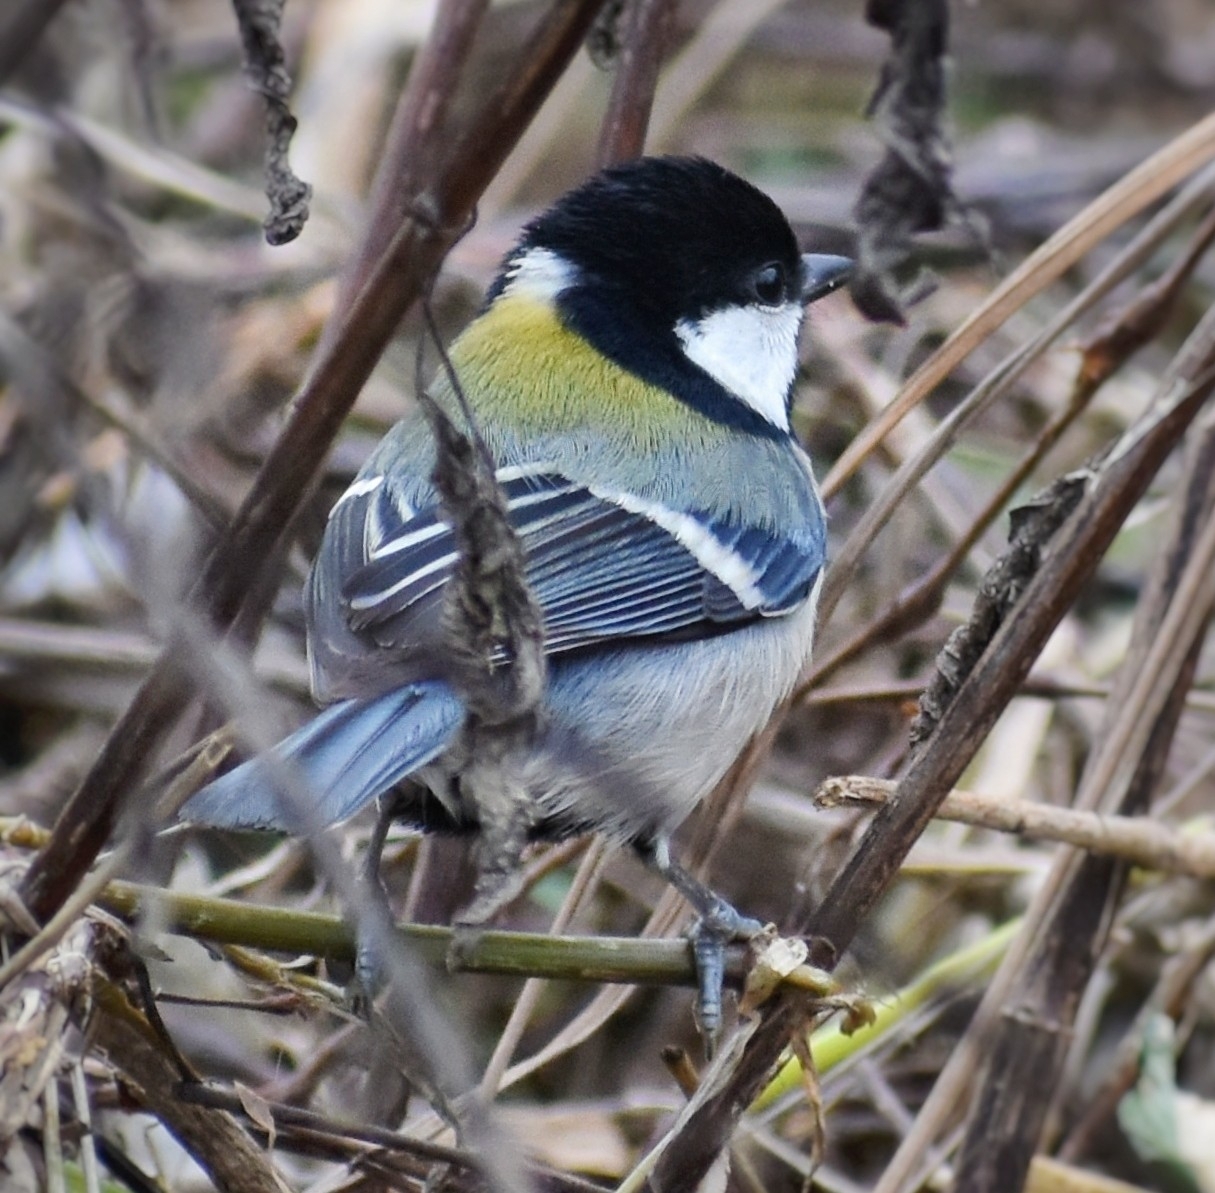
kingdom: Animalia
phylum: Chordata
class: Aves
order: Passeriformes
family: Paridae
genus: Parus
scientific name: Parus minor
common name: Japanese tit
